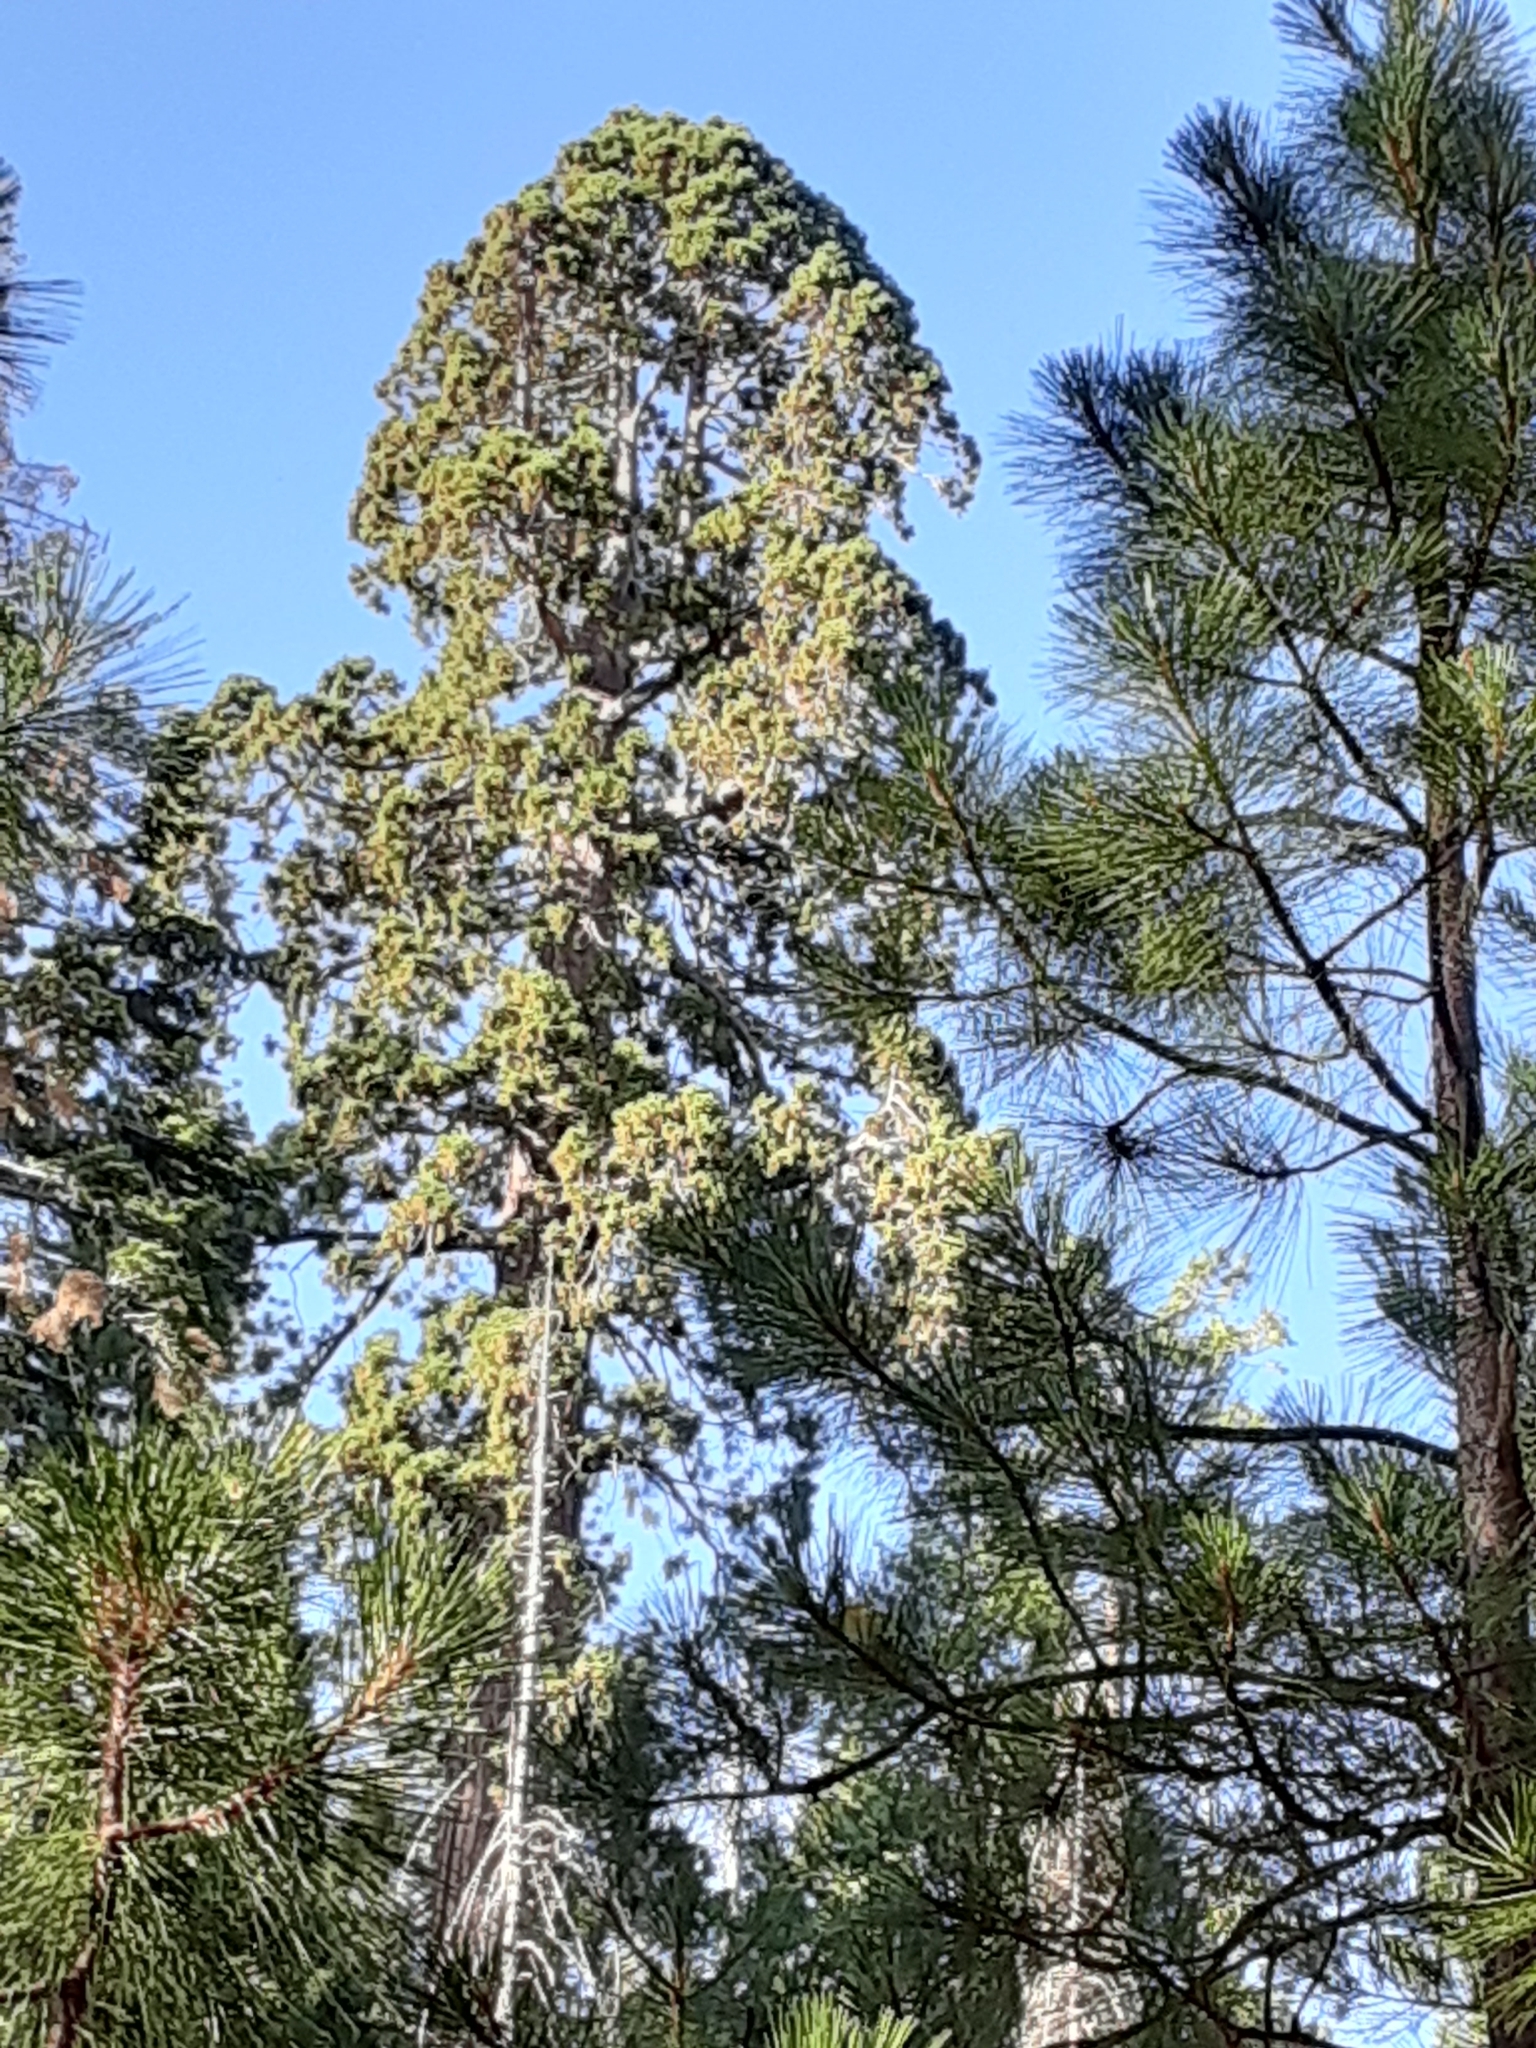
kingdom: Plantae
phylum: Tracheophyta
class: Pinopsida
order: Pinales
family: Cupressaceae
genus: Sequoiadendron
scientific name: Sequoiadendron giganteum
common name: Wellingtonia
